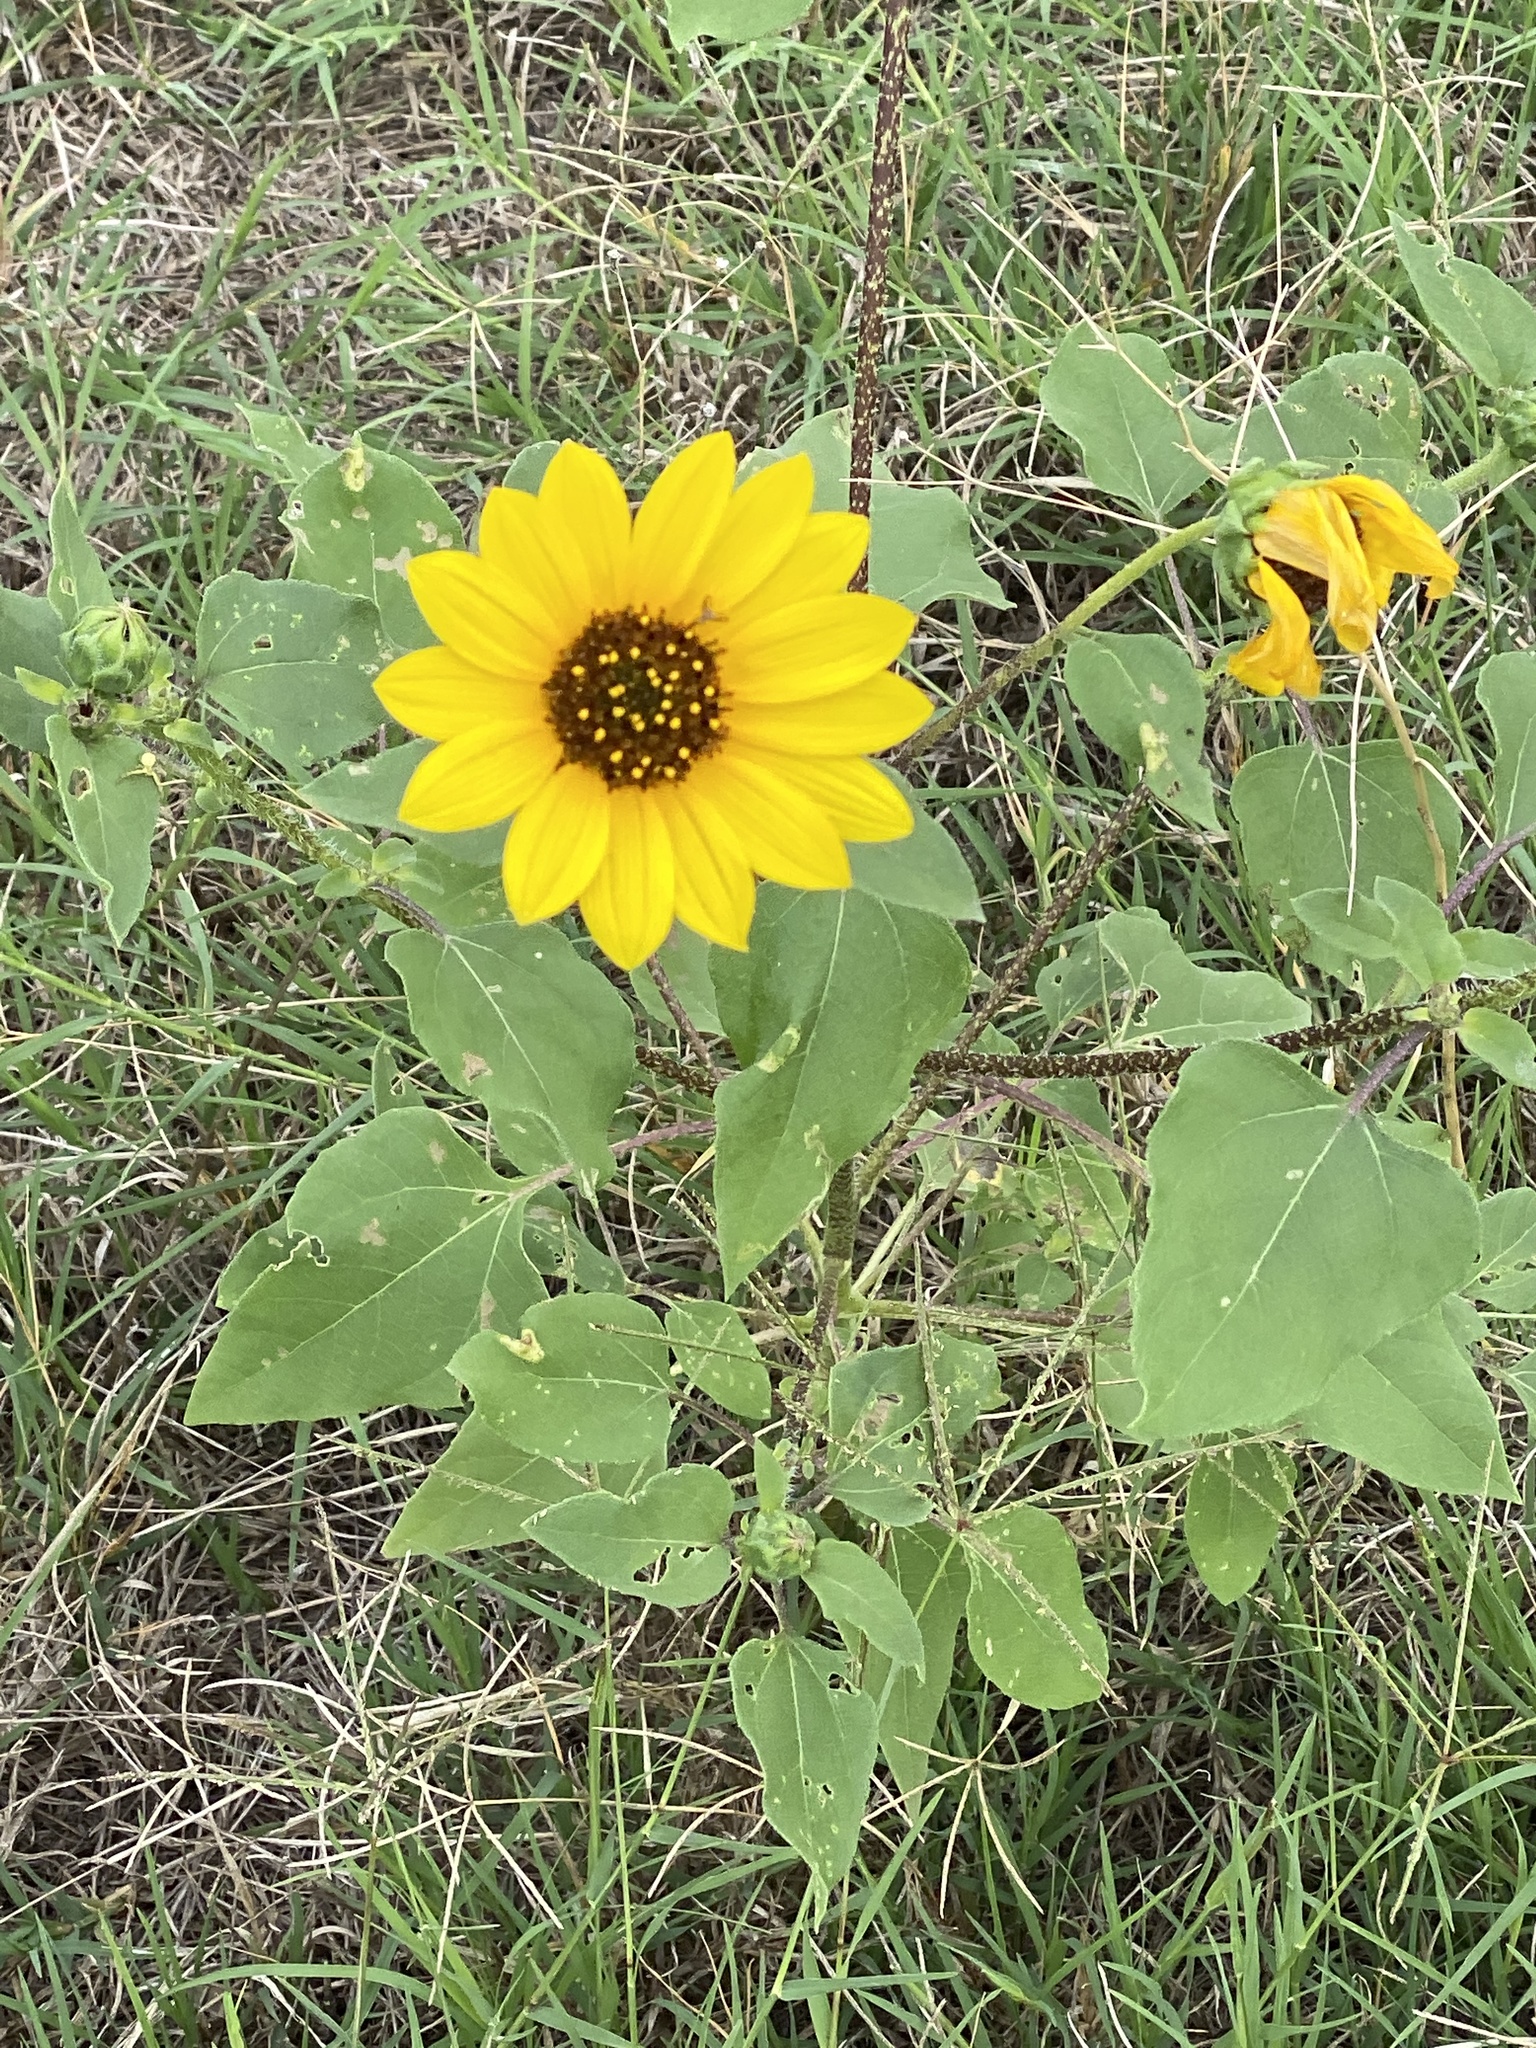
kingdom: Plantae
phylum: Tracheophyta
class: Magnoliopsida
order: Asterales
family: Asteraceae
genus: Helianthus
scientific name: Helianthus annuus
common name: Sunflower
